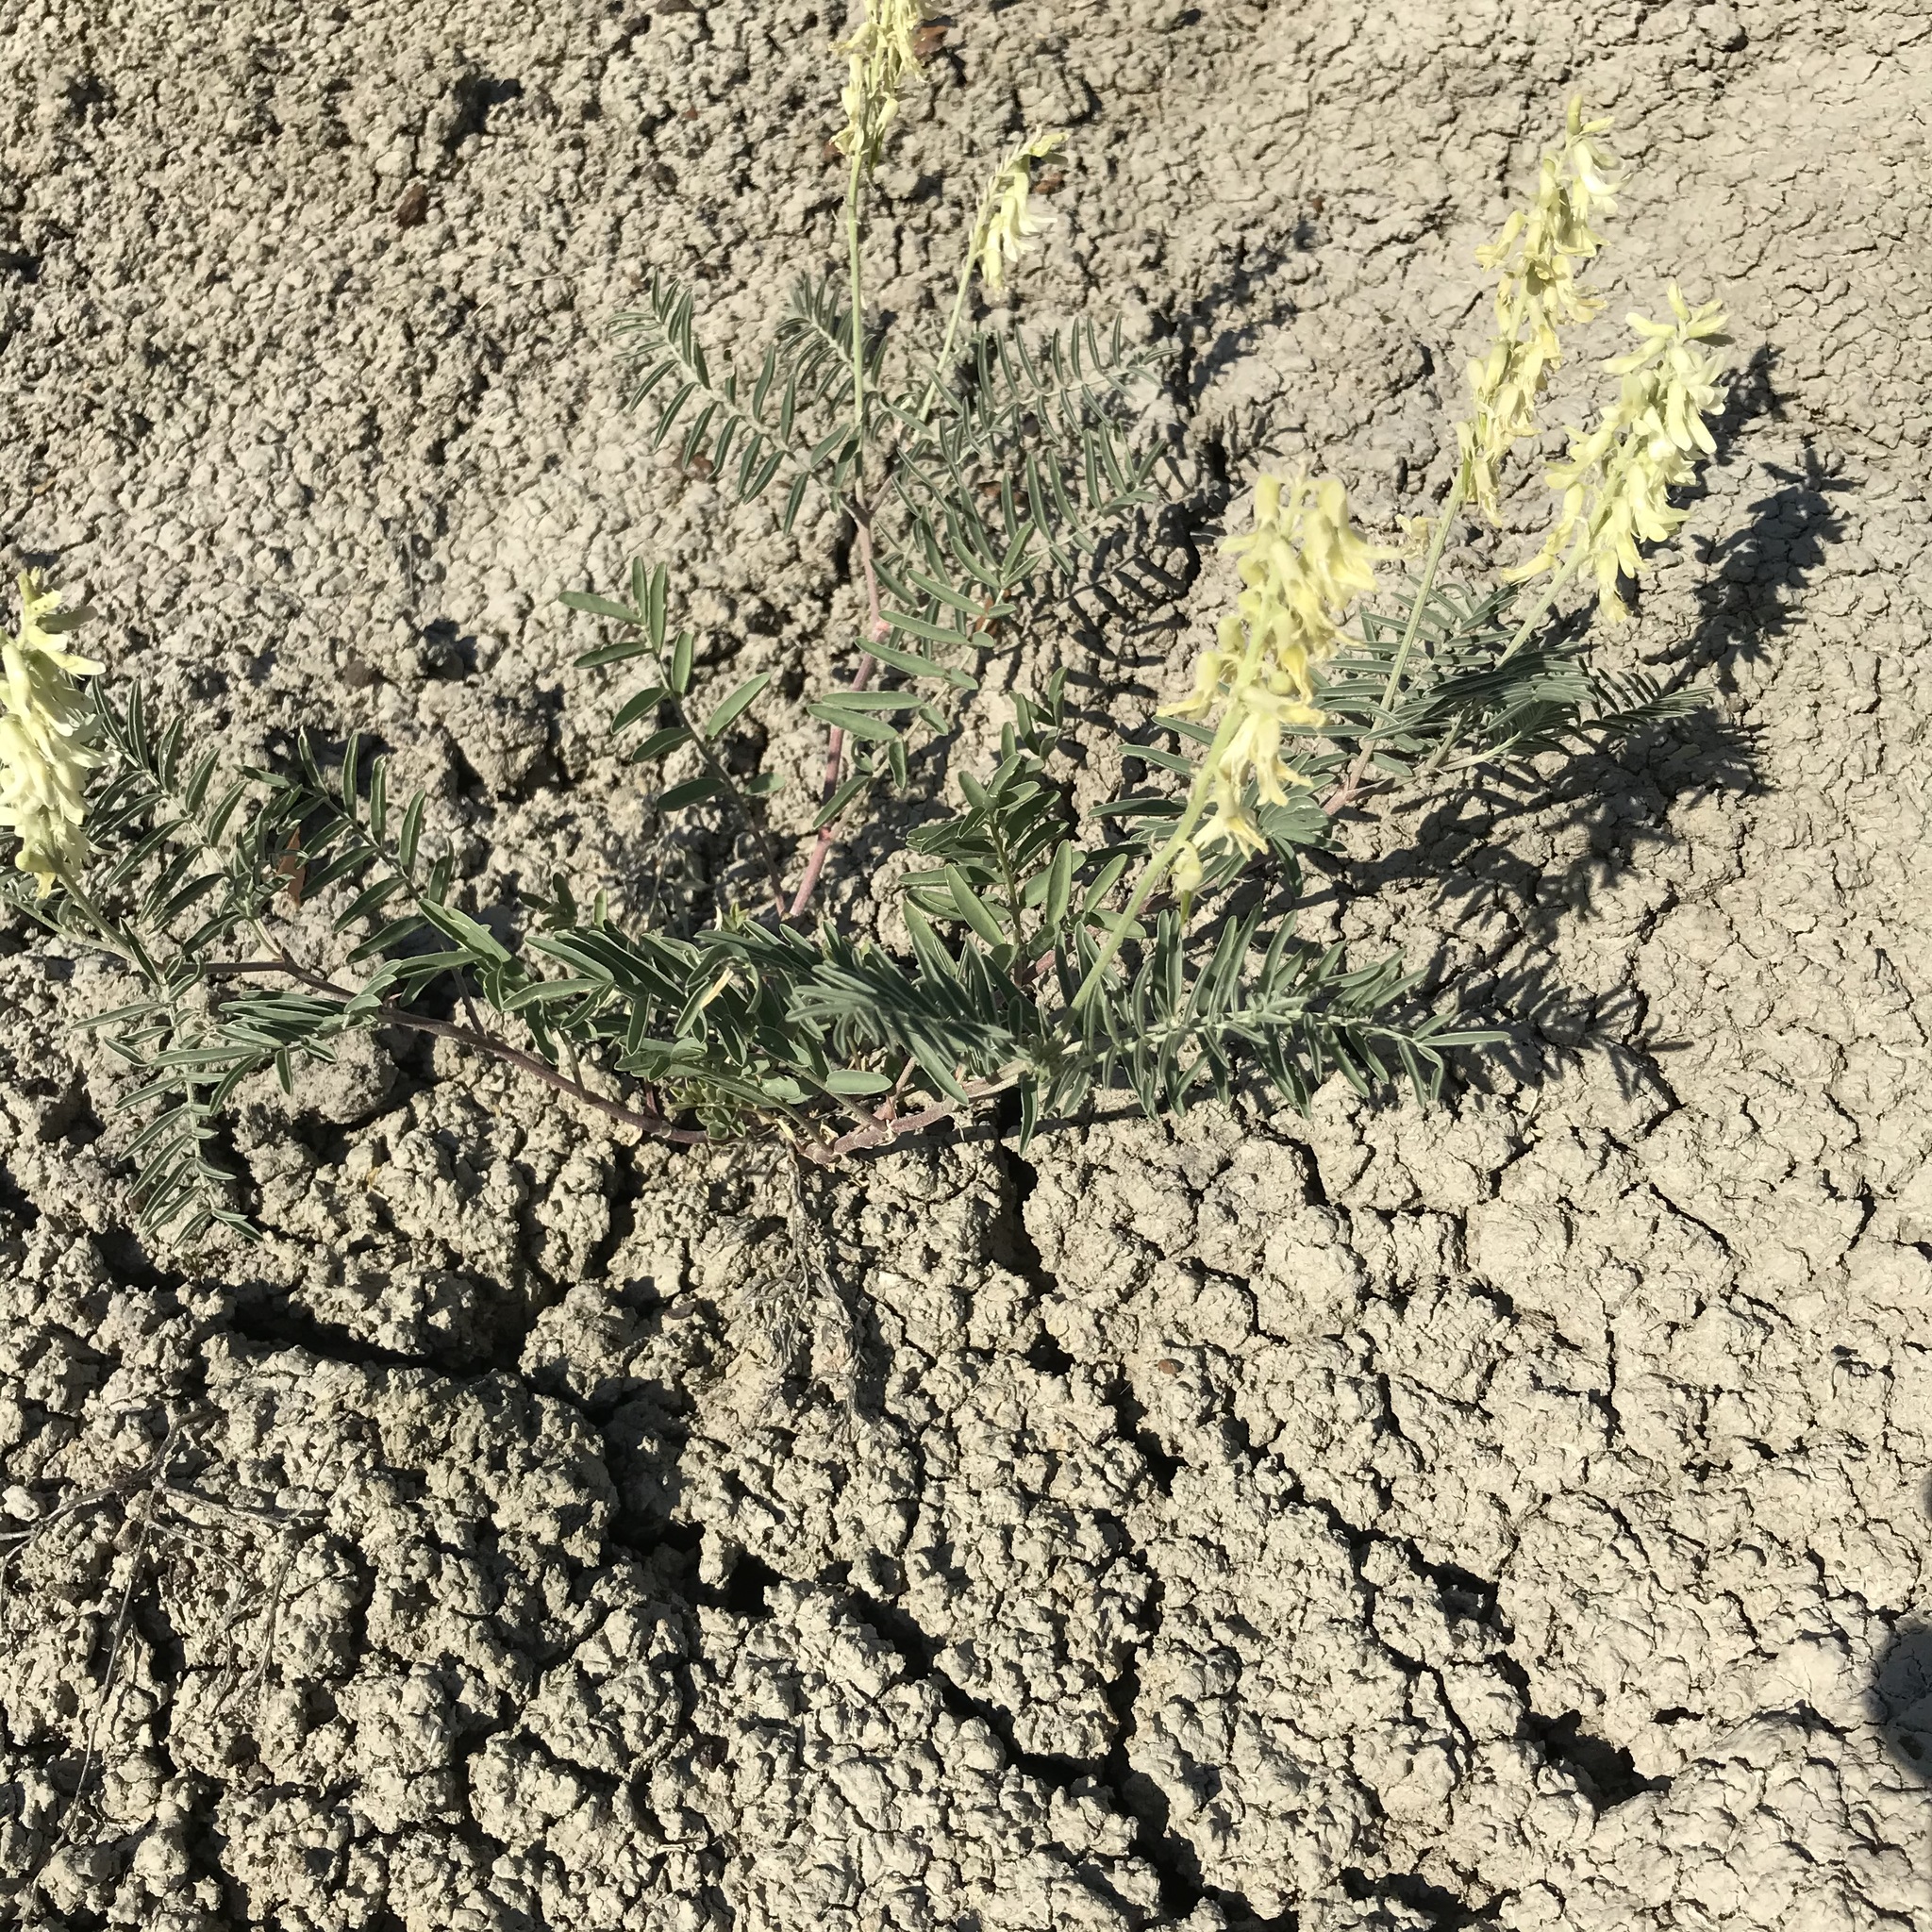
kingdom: Plantae
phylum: Tracheophyta
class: Magnoliopsida
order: Fabales
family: Fabaceae
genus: Astragalus
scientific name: Astragalus racemosus
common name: Alkali milk-vetch
